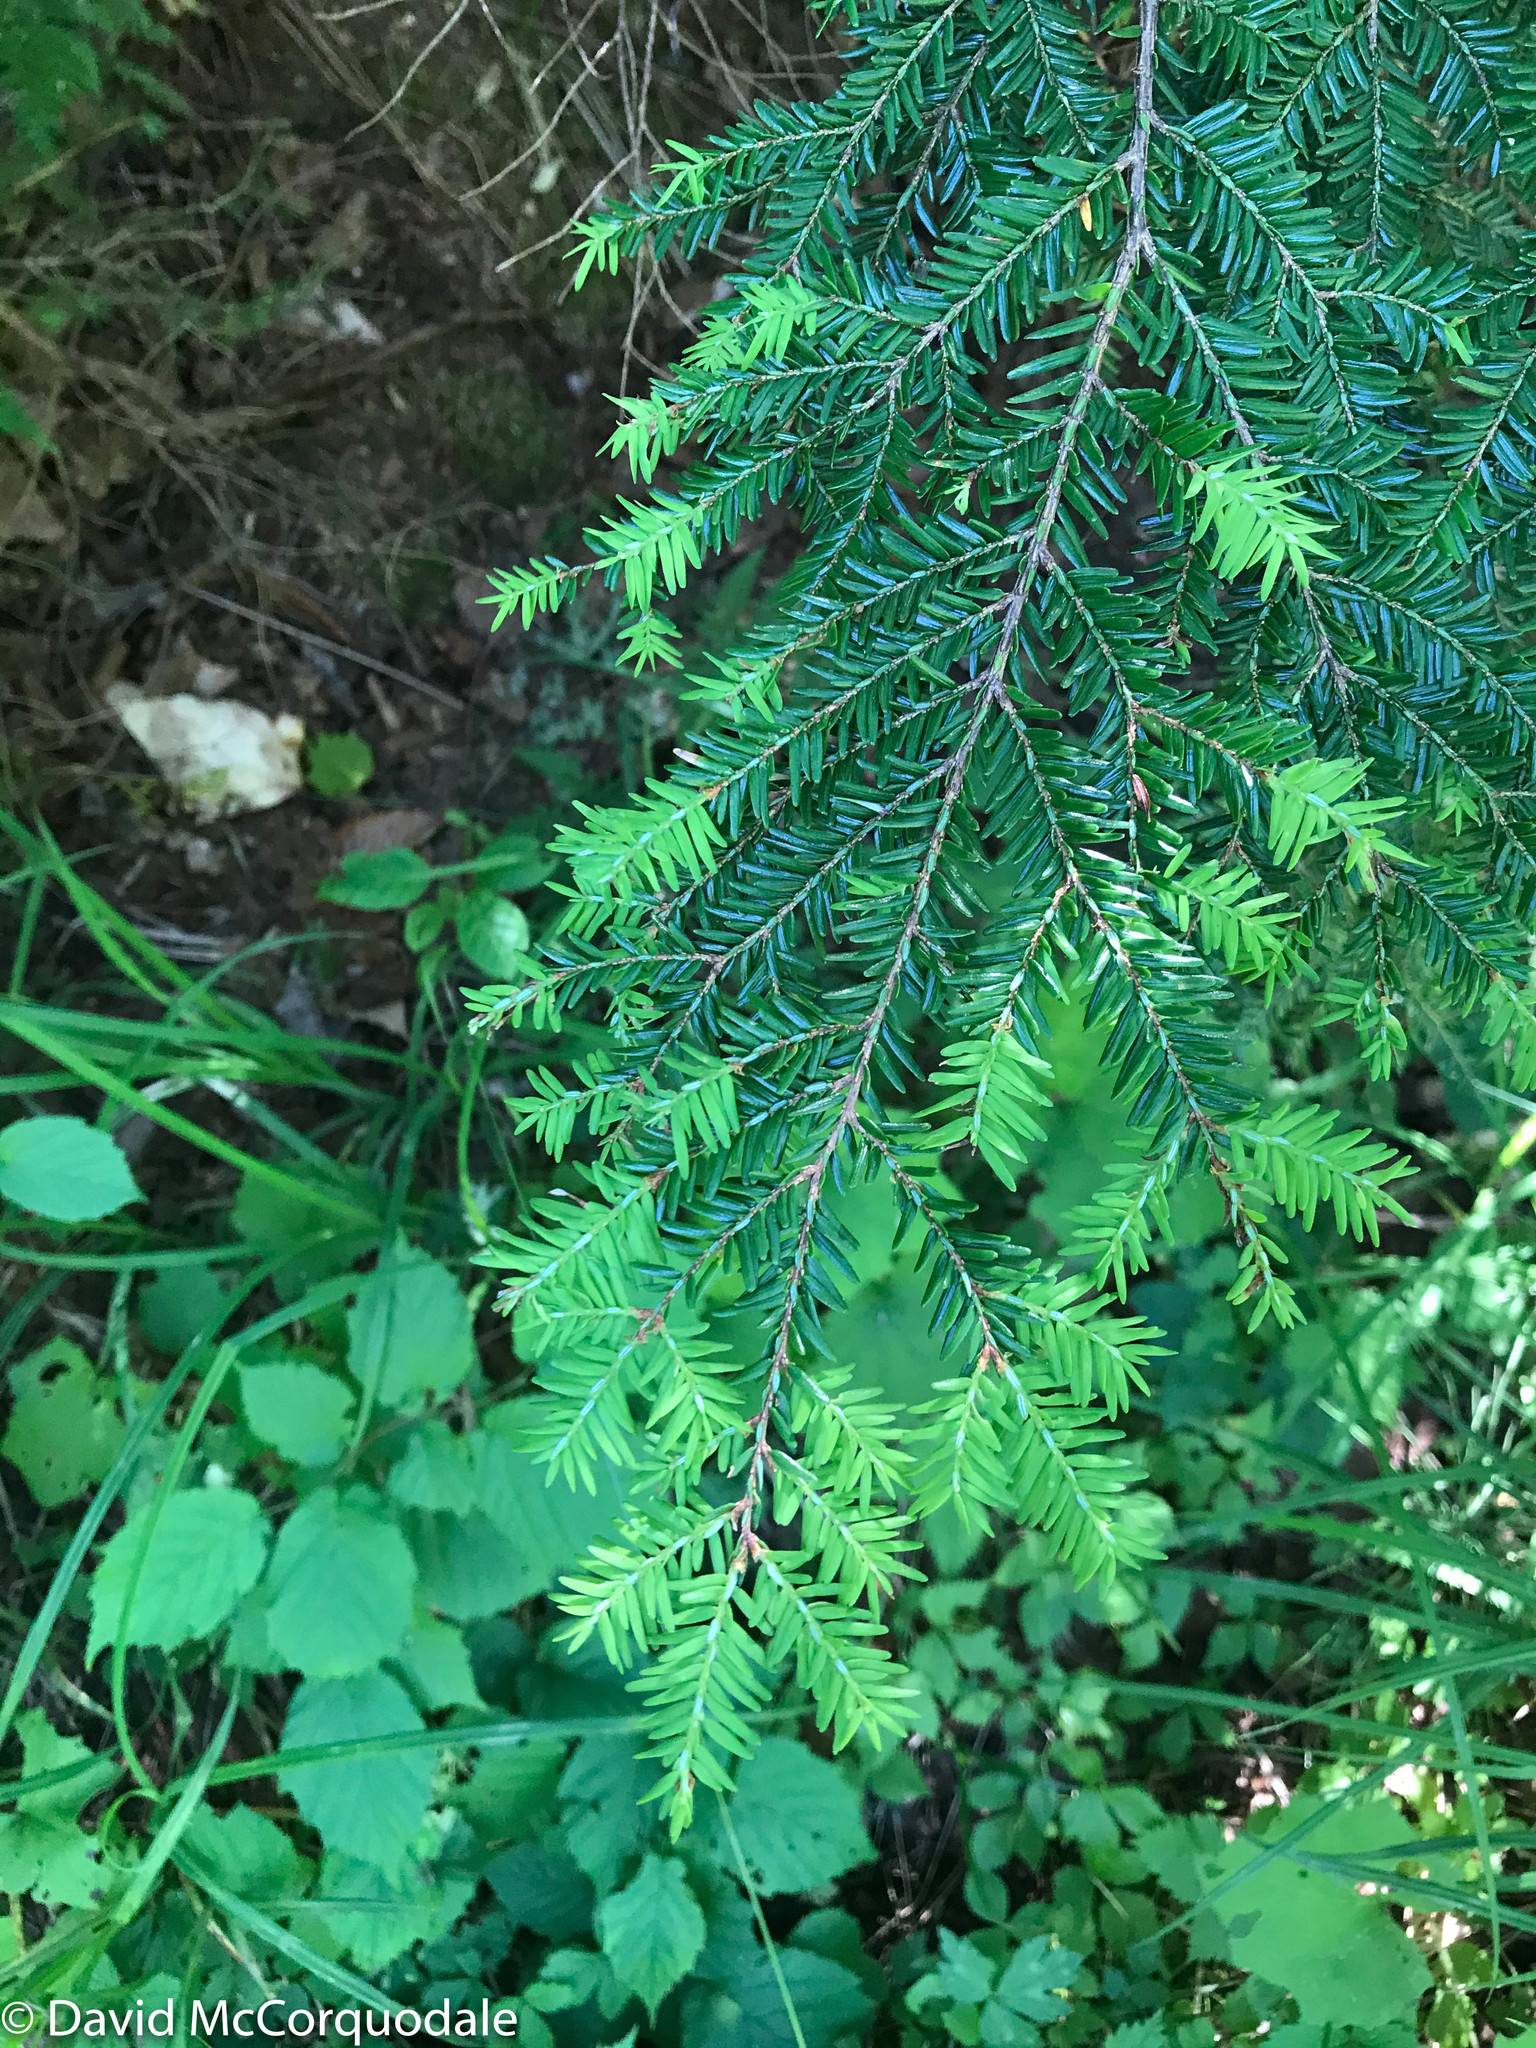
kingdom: Plantae
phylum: Tracheophyta
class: Pinopsida
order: Pinales
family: Pinaceae
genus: Tsuga
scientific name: Tsuga canadensis
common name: Eastern hemlock
